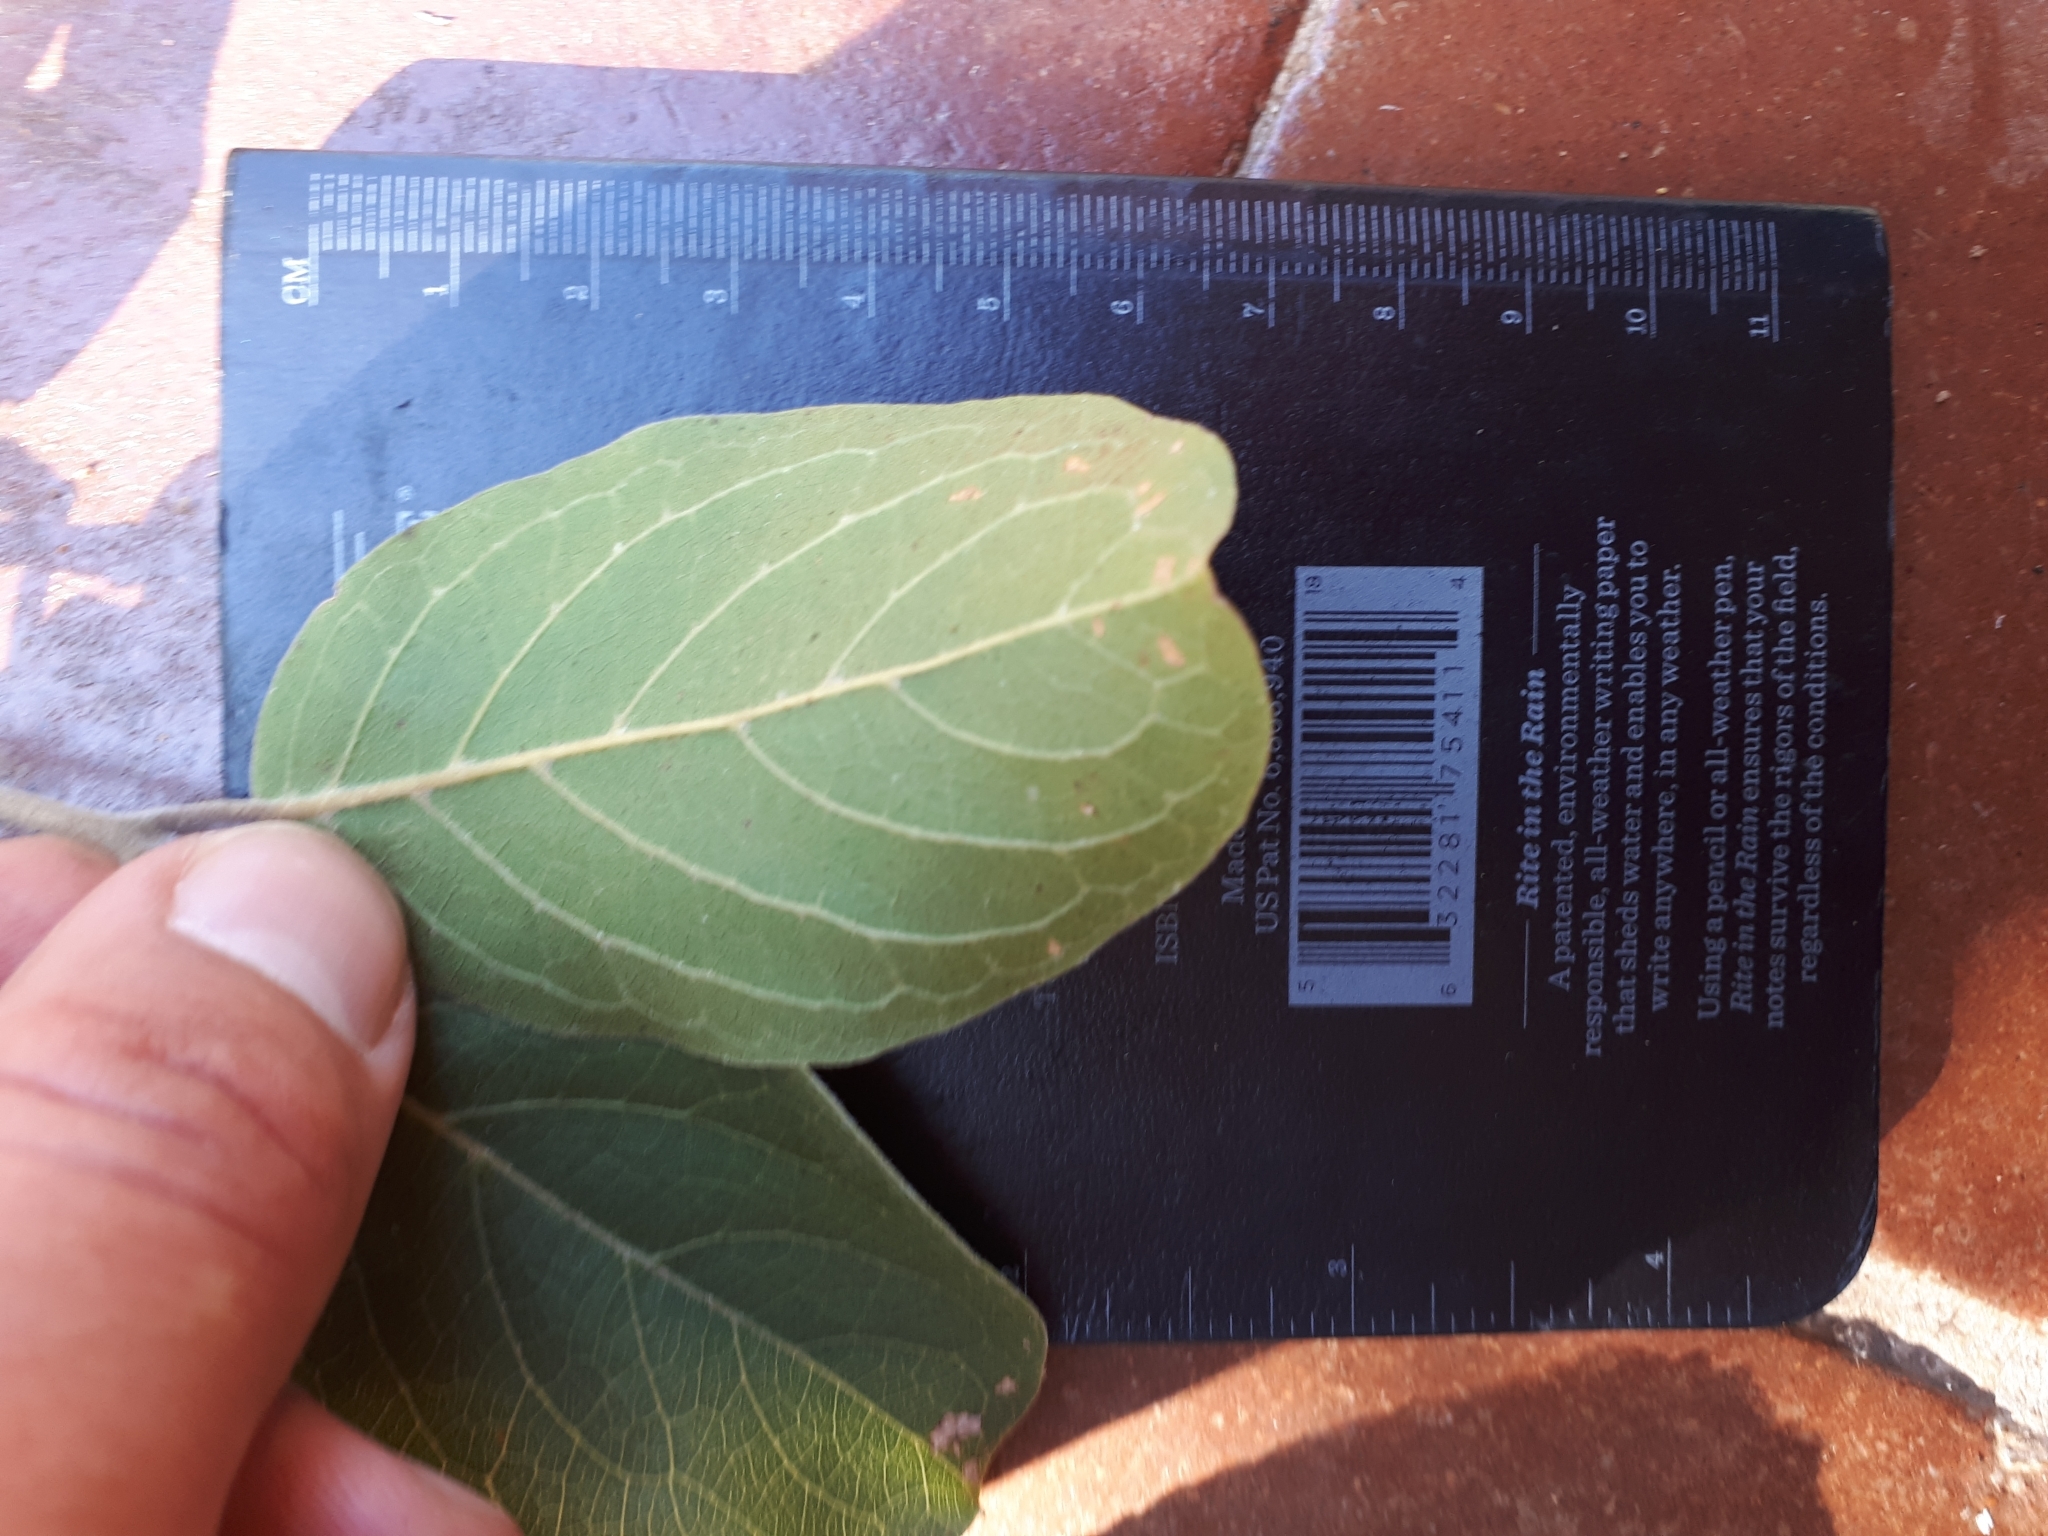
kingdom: Plantae
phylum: Tracheophyta
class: Magnoliopsida
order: Myrtales
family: Combretaceae
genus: Combretum
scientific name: Combretum zeyheri
